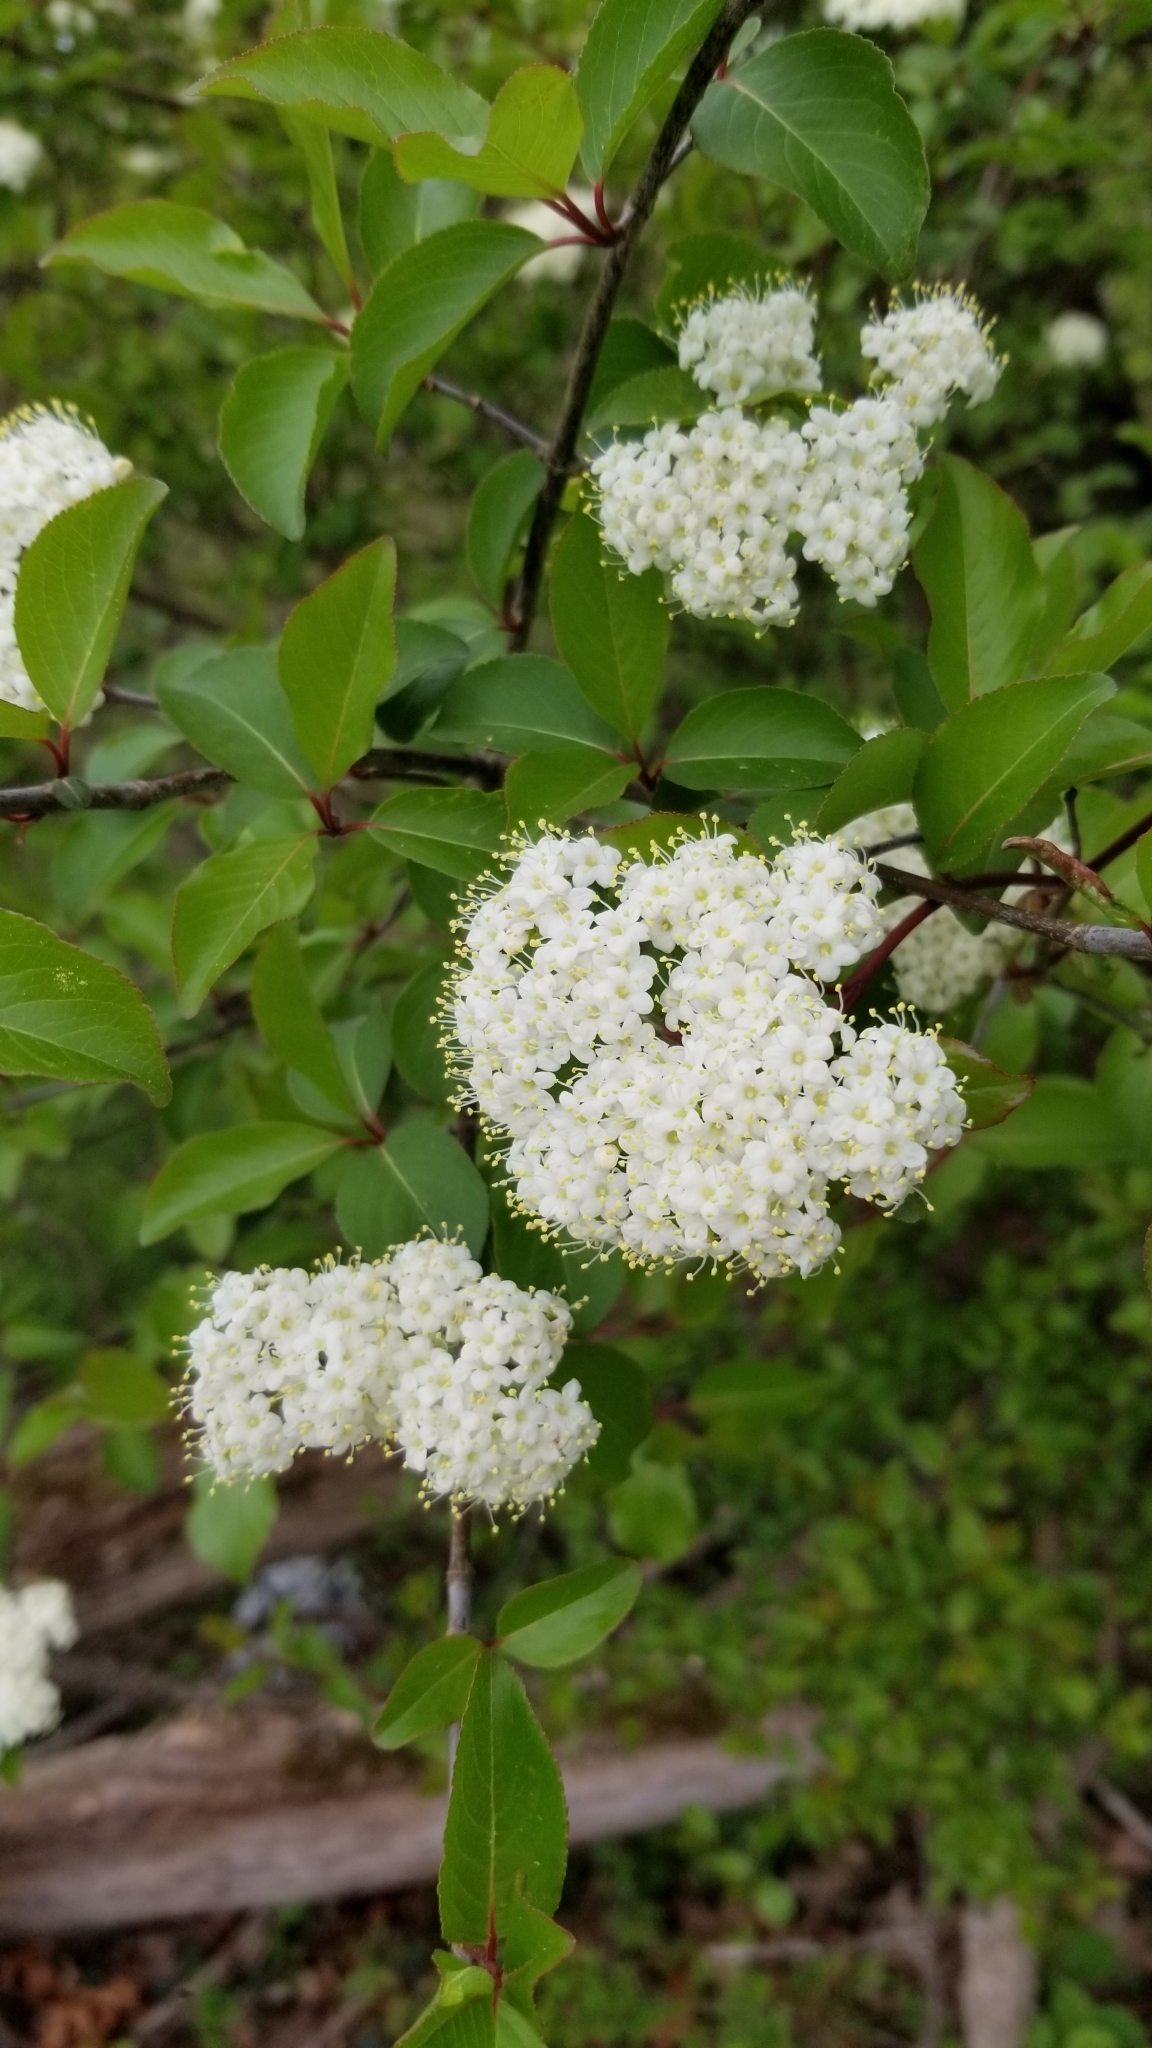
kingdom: Plantae
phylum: Tracheophyta
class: Magnoliopsida
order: Dipsacales
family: Viburnaceae
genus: Viburnum
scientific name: Viburnum prunifolium
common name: Black haw
